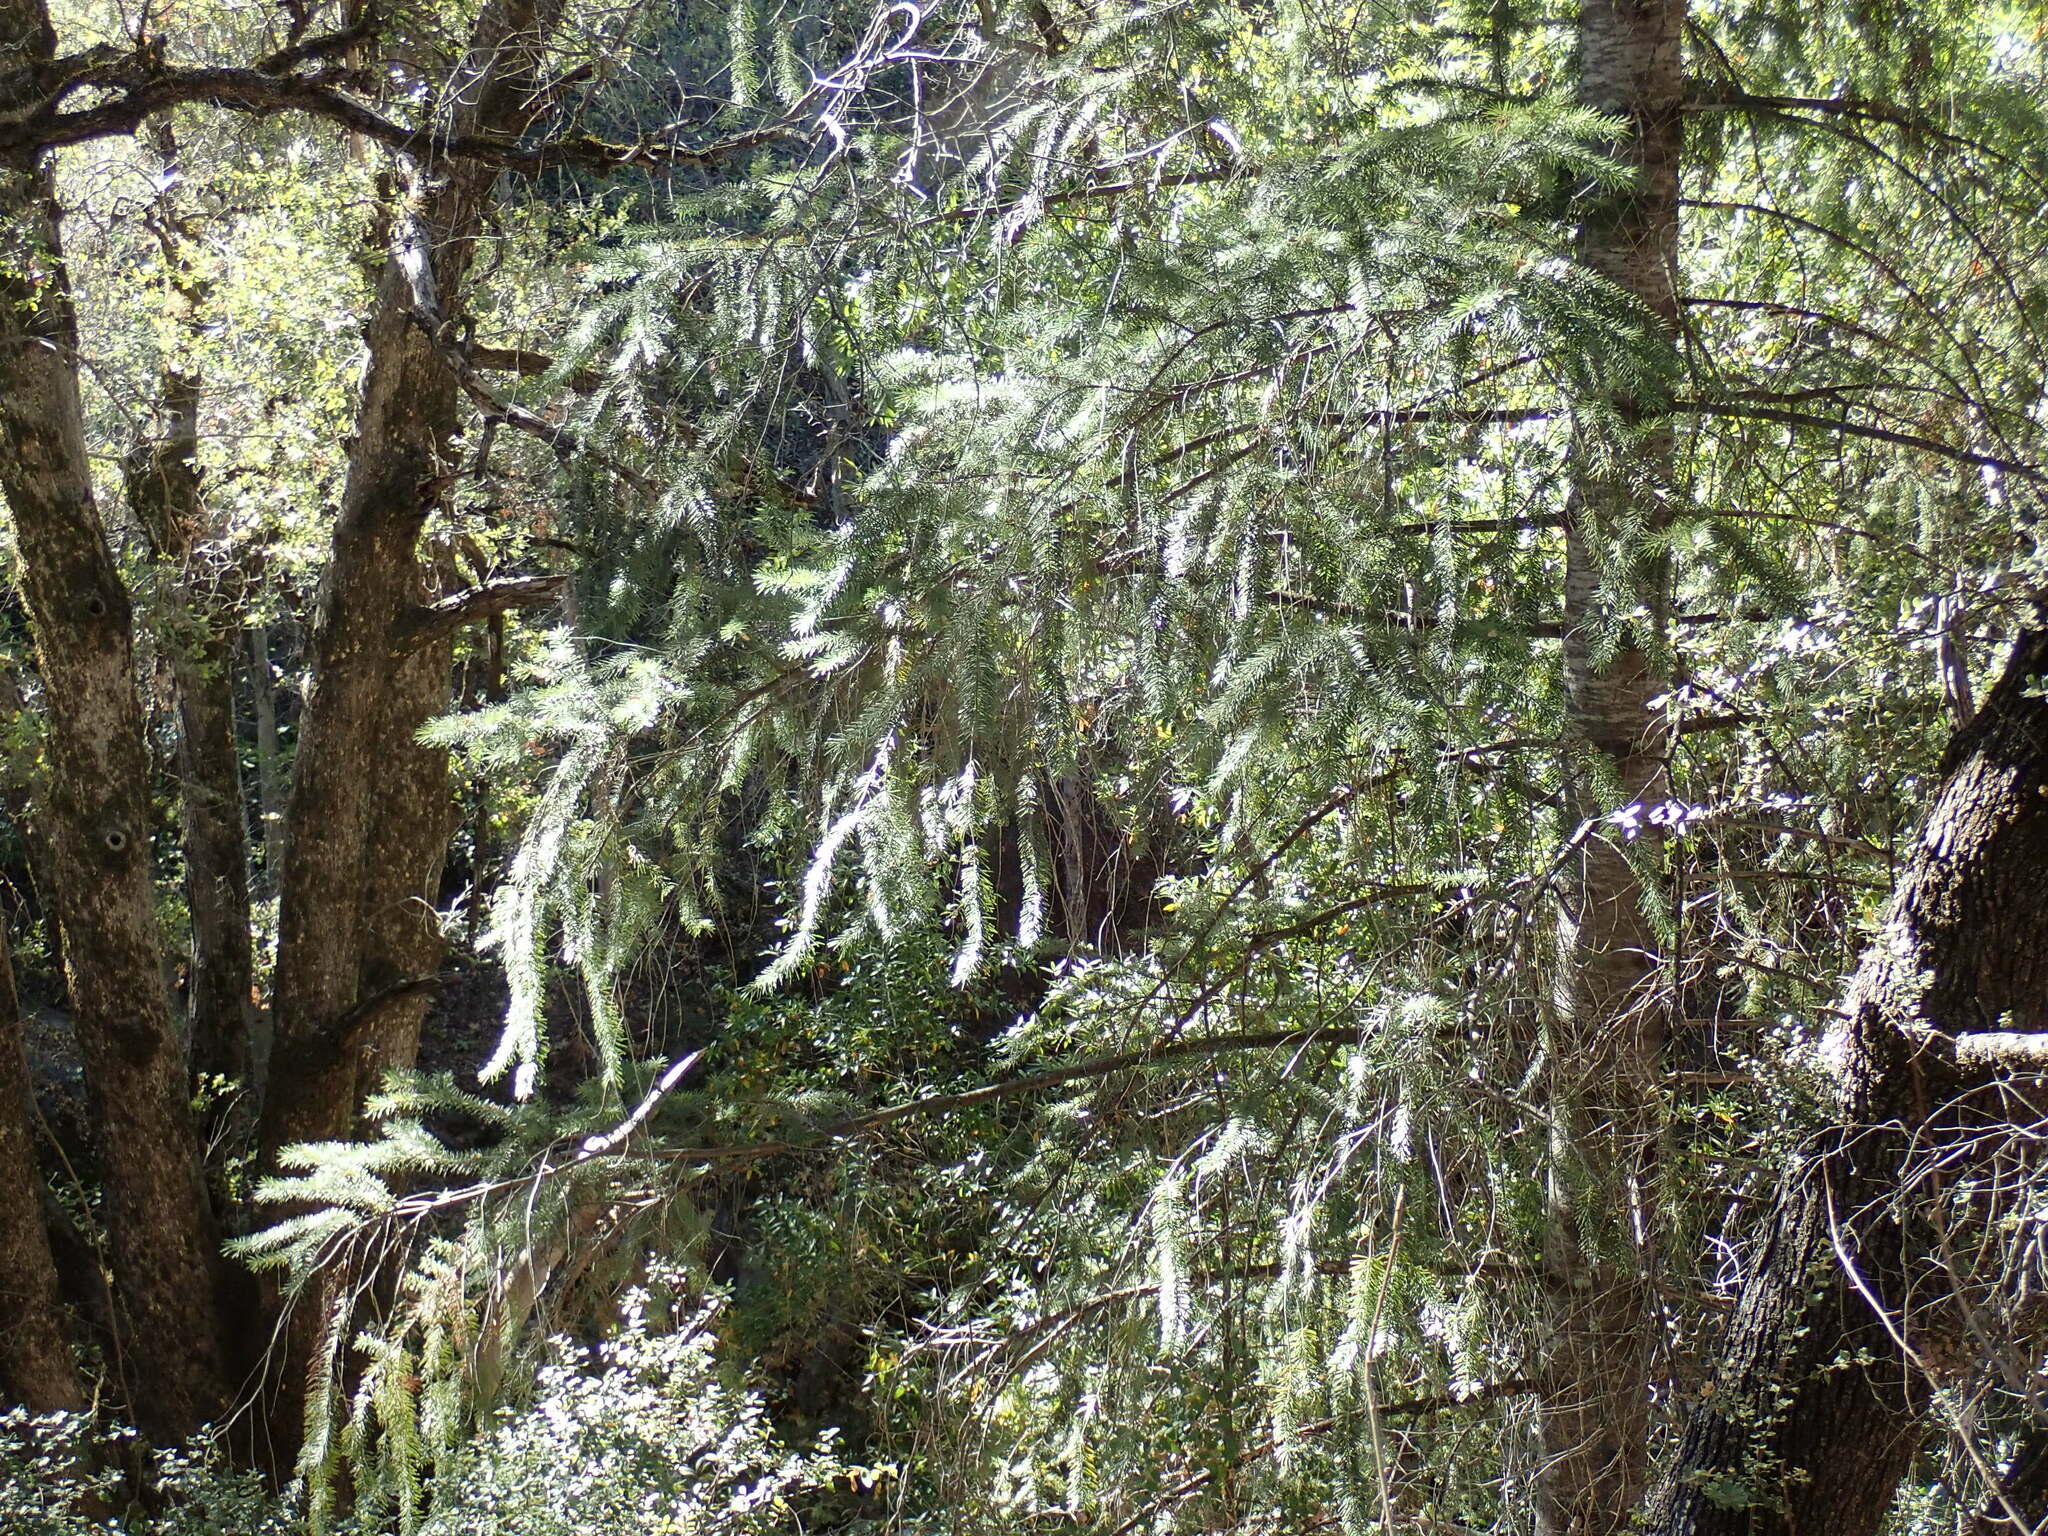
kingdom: Plantae
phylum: Tracheophyta
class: Pinopsida
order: Pinales
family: Pinaceae
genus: Abies
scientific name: Abies bracteata
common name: Bristlecone fir
